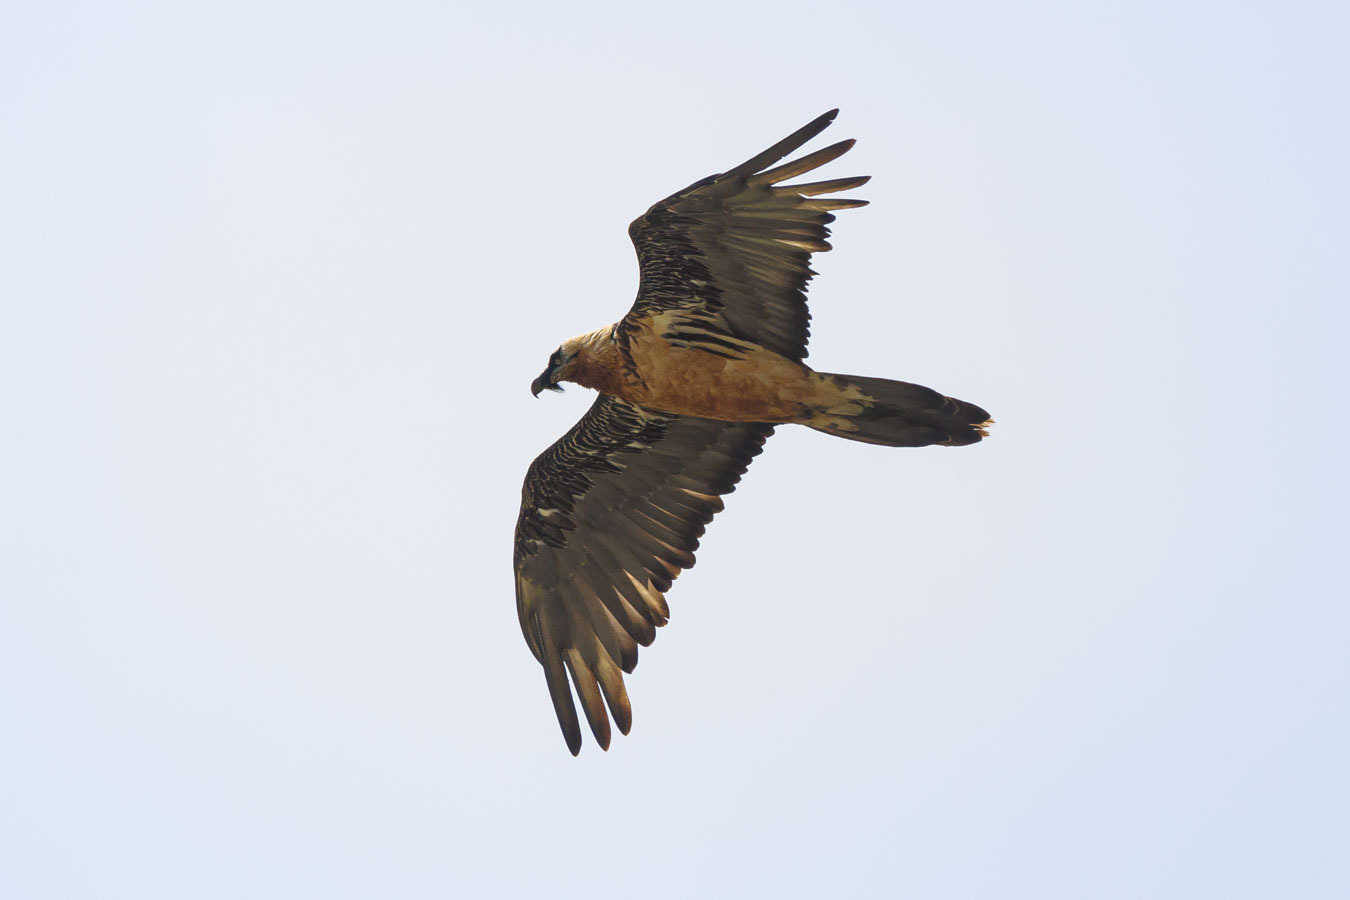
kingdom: Animalia
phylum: Chordata
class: Aves
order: Accipitriformes
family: Accipitridae
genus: Gypaetus
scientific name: Gypaetus barbatus
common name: Bearded vulture
